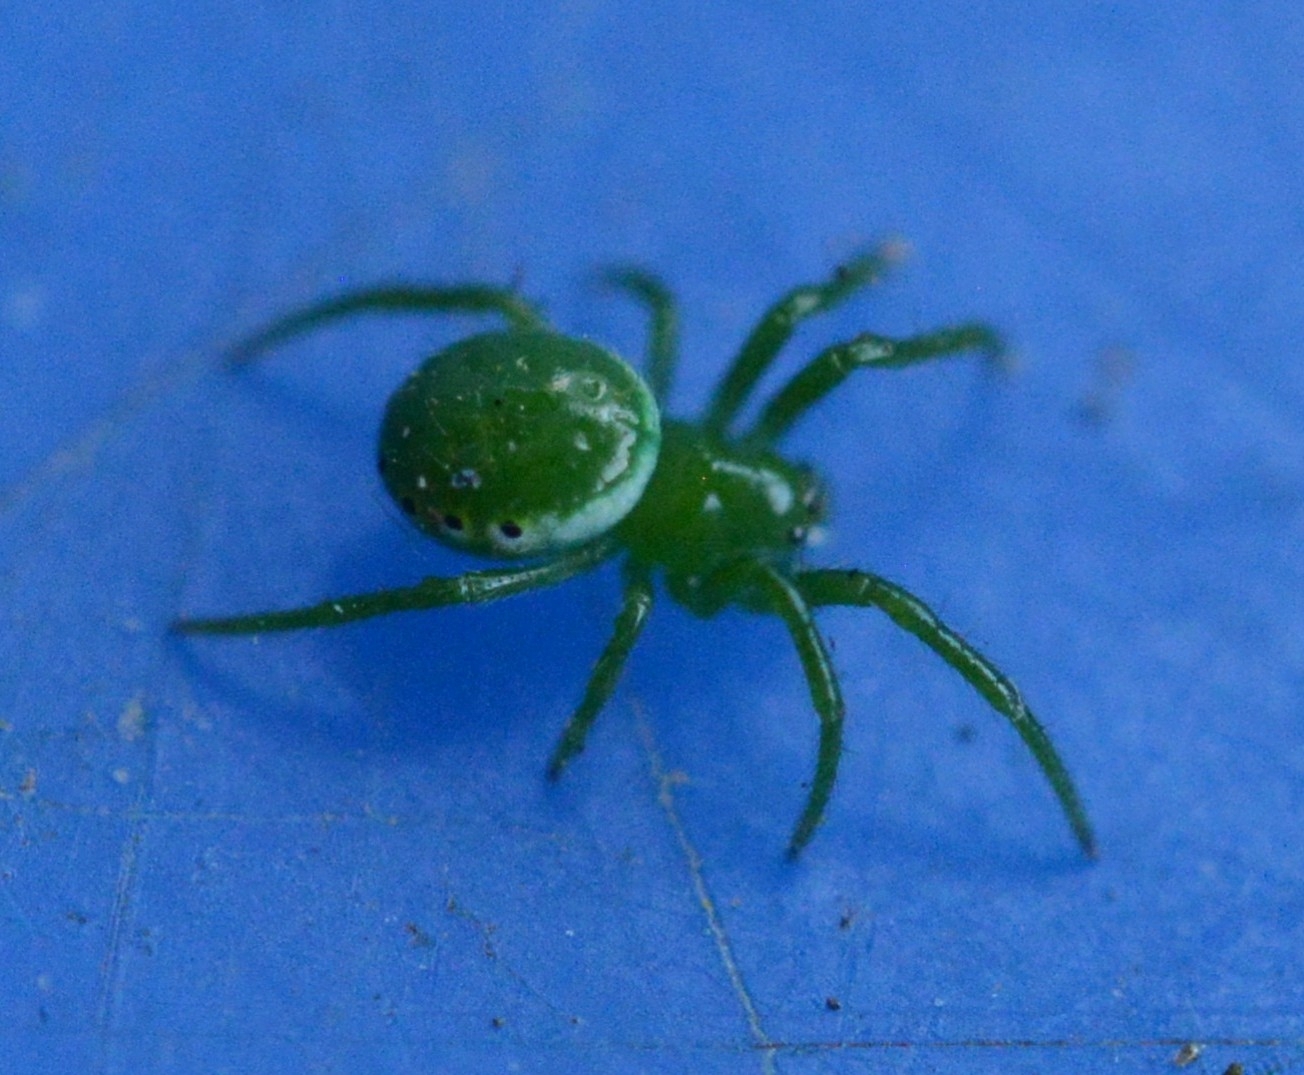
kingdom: Animalia
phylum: Arthropoda
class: Arachnida
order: Araneae
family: Araneidae
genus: Prasonica
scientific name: Prasonica seriata
